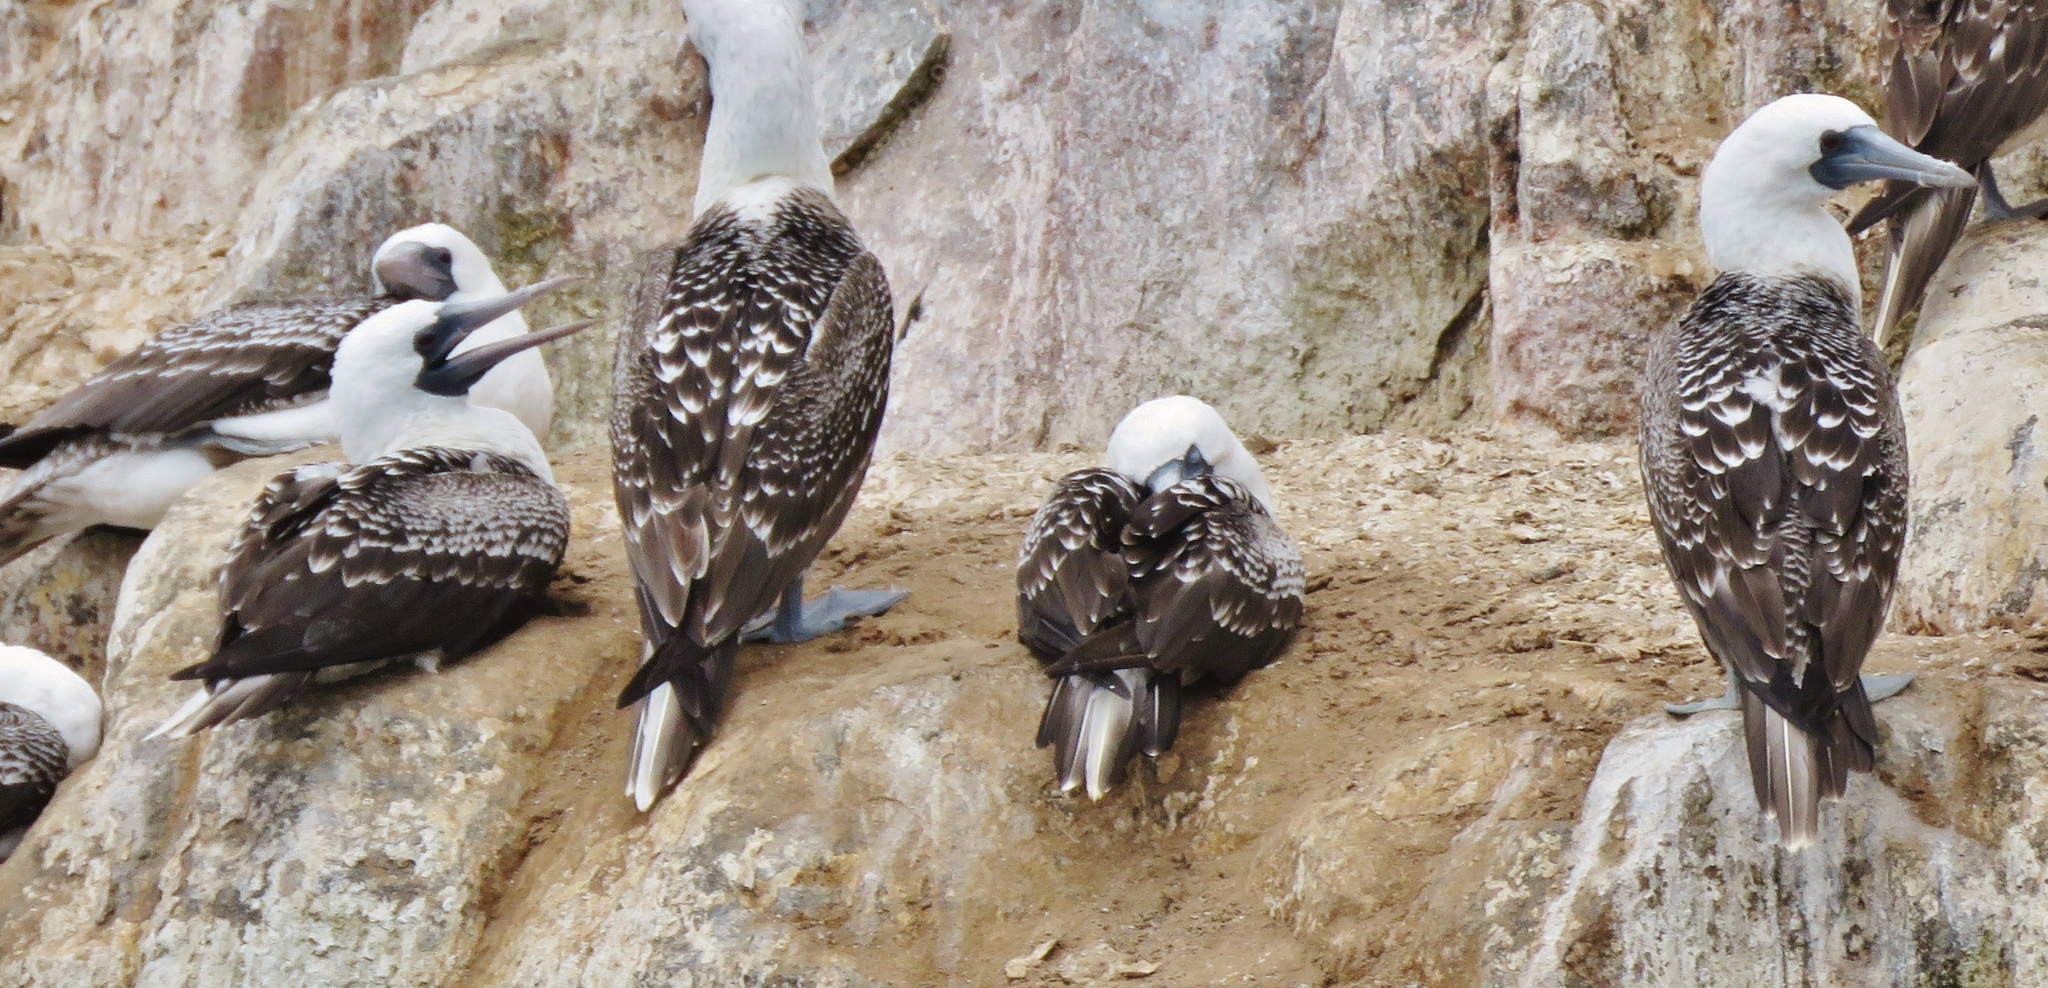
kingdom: Animalia
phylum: Chordata
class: Aves
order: Suliformes
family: Sulidae
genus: Sula
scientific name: Sula variegata
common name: Peruvian booby
